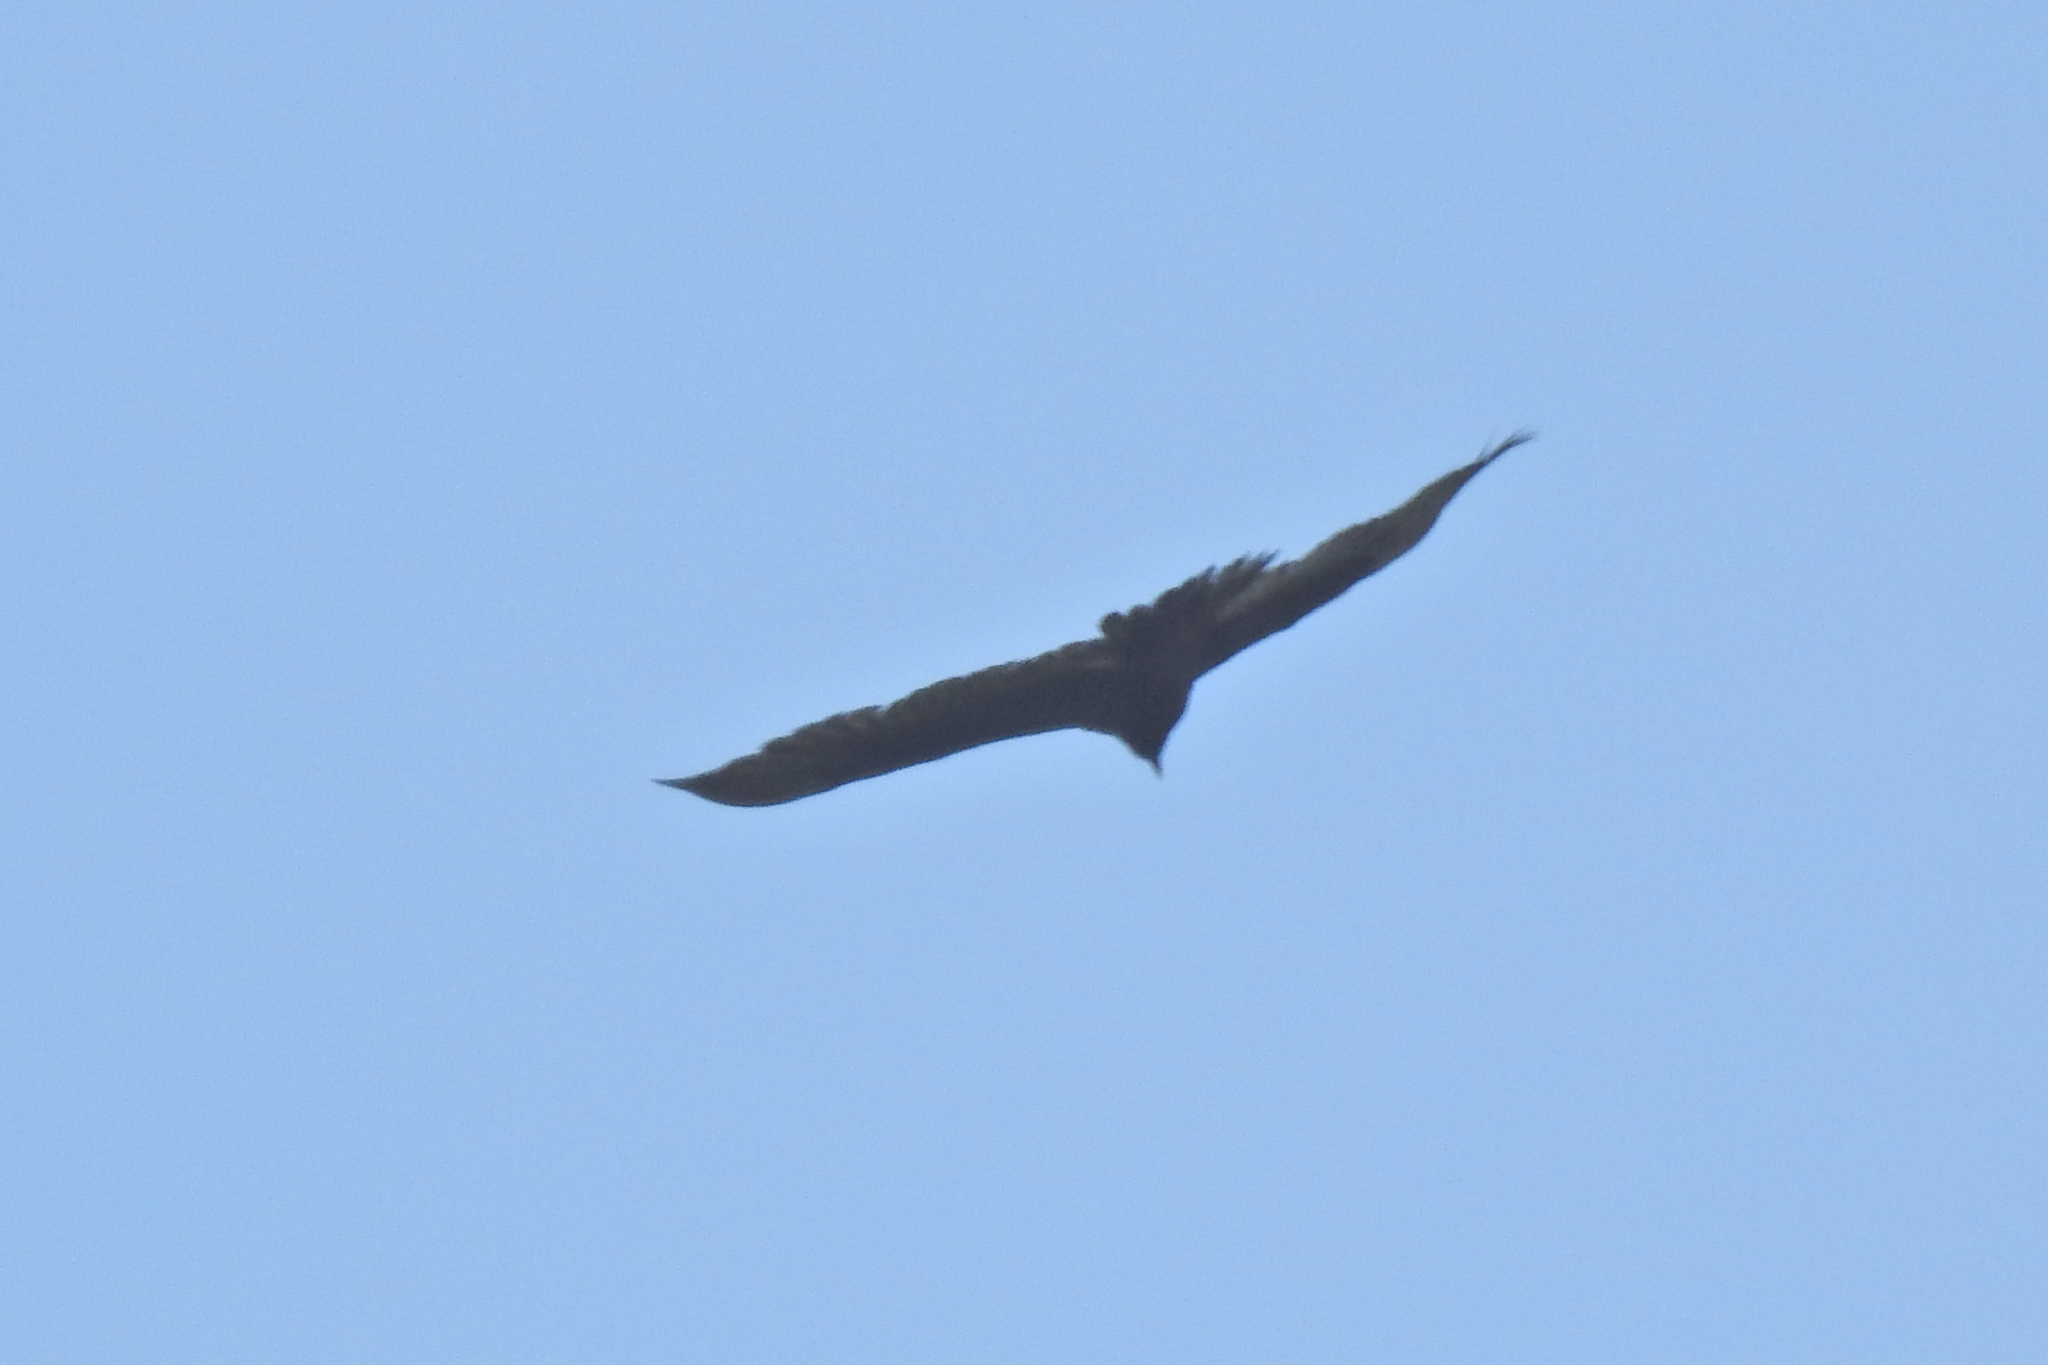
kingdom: Animalia
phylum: Chordata
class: Aves
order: Accipitriformes
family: Cathartidae
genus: Cathartes
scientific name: Cathartes aura
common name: Turkey vulture
